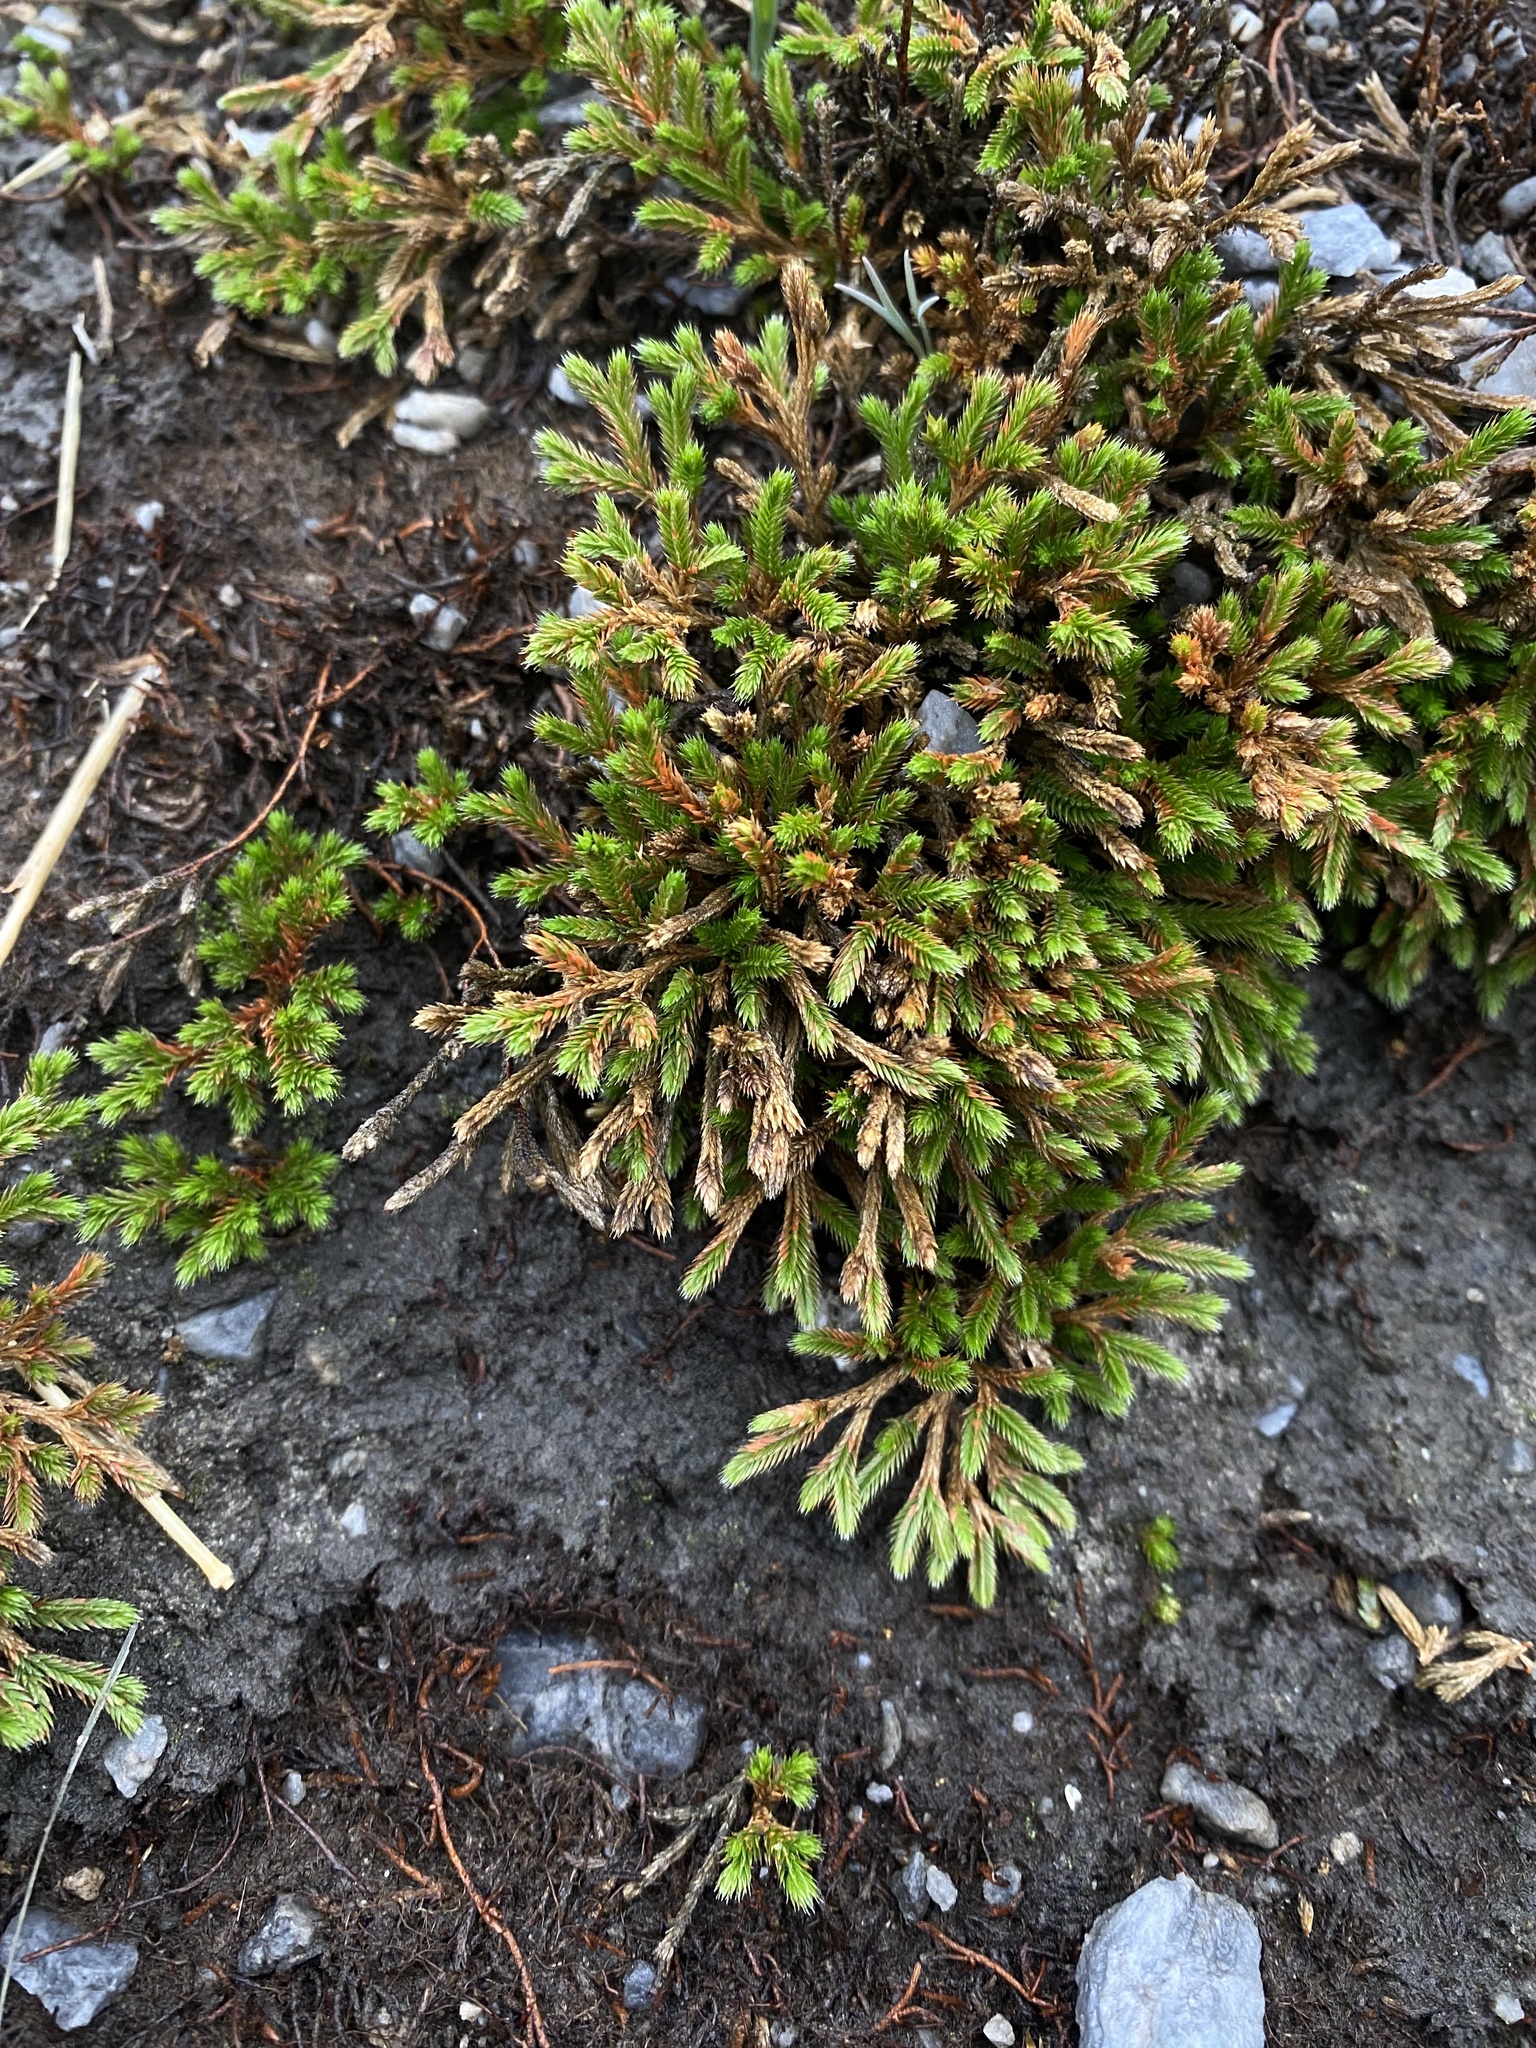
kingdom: Plantae
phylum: Tracheophyta
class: Lycopodiopsida
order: Selaginellales
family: Selaginellaceae
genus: Selaginella
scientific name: Selaginella bigelovii
